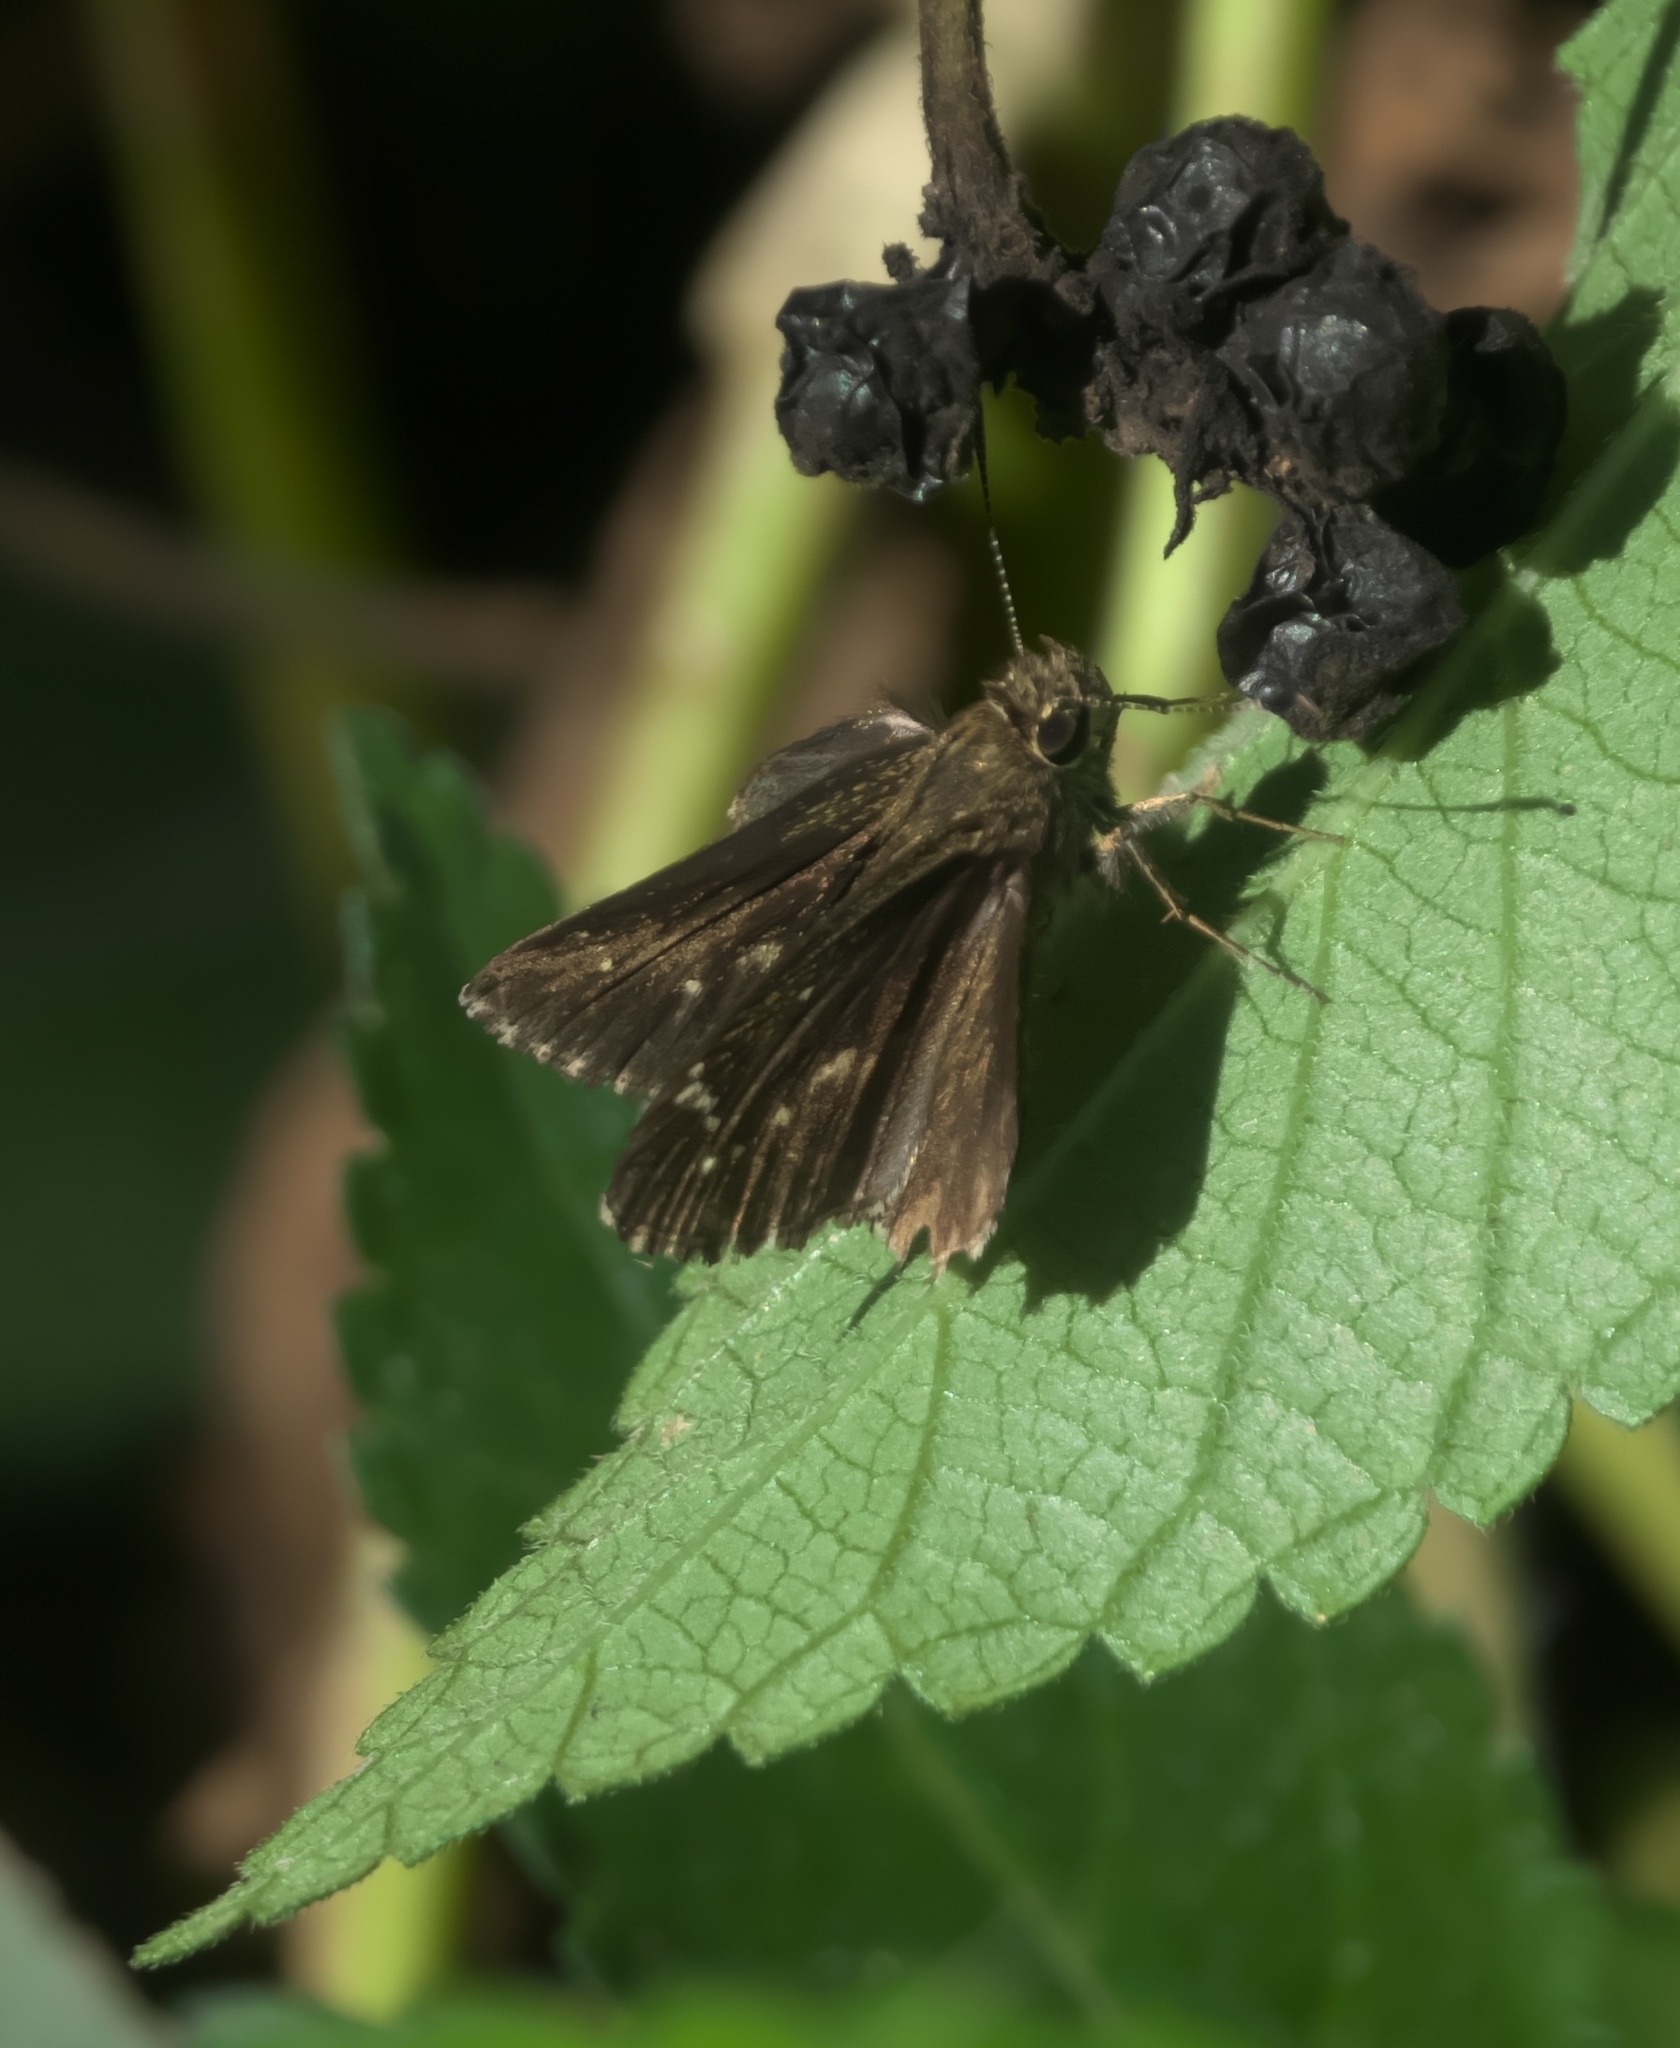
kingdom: Animalia
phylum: Arthropoda
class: Insecta
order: Lepidoptera
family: Hesperiidae
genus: Mastor
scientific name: Mastor celia
